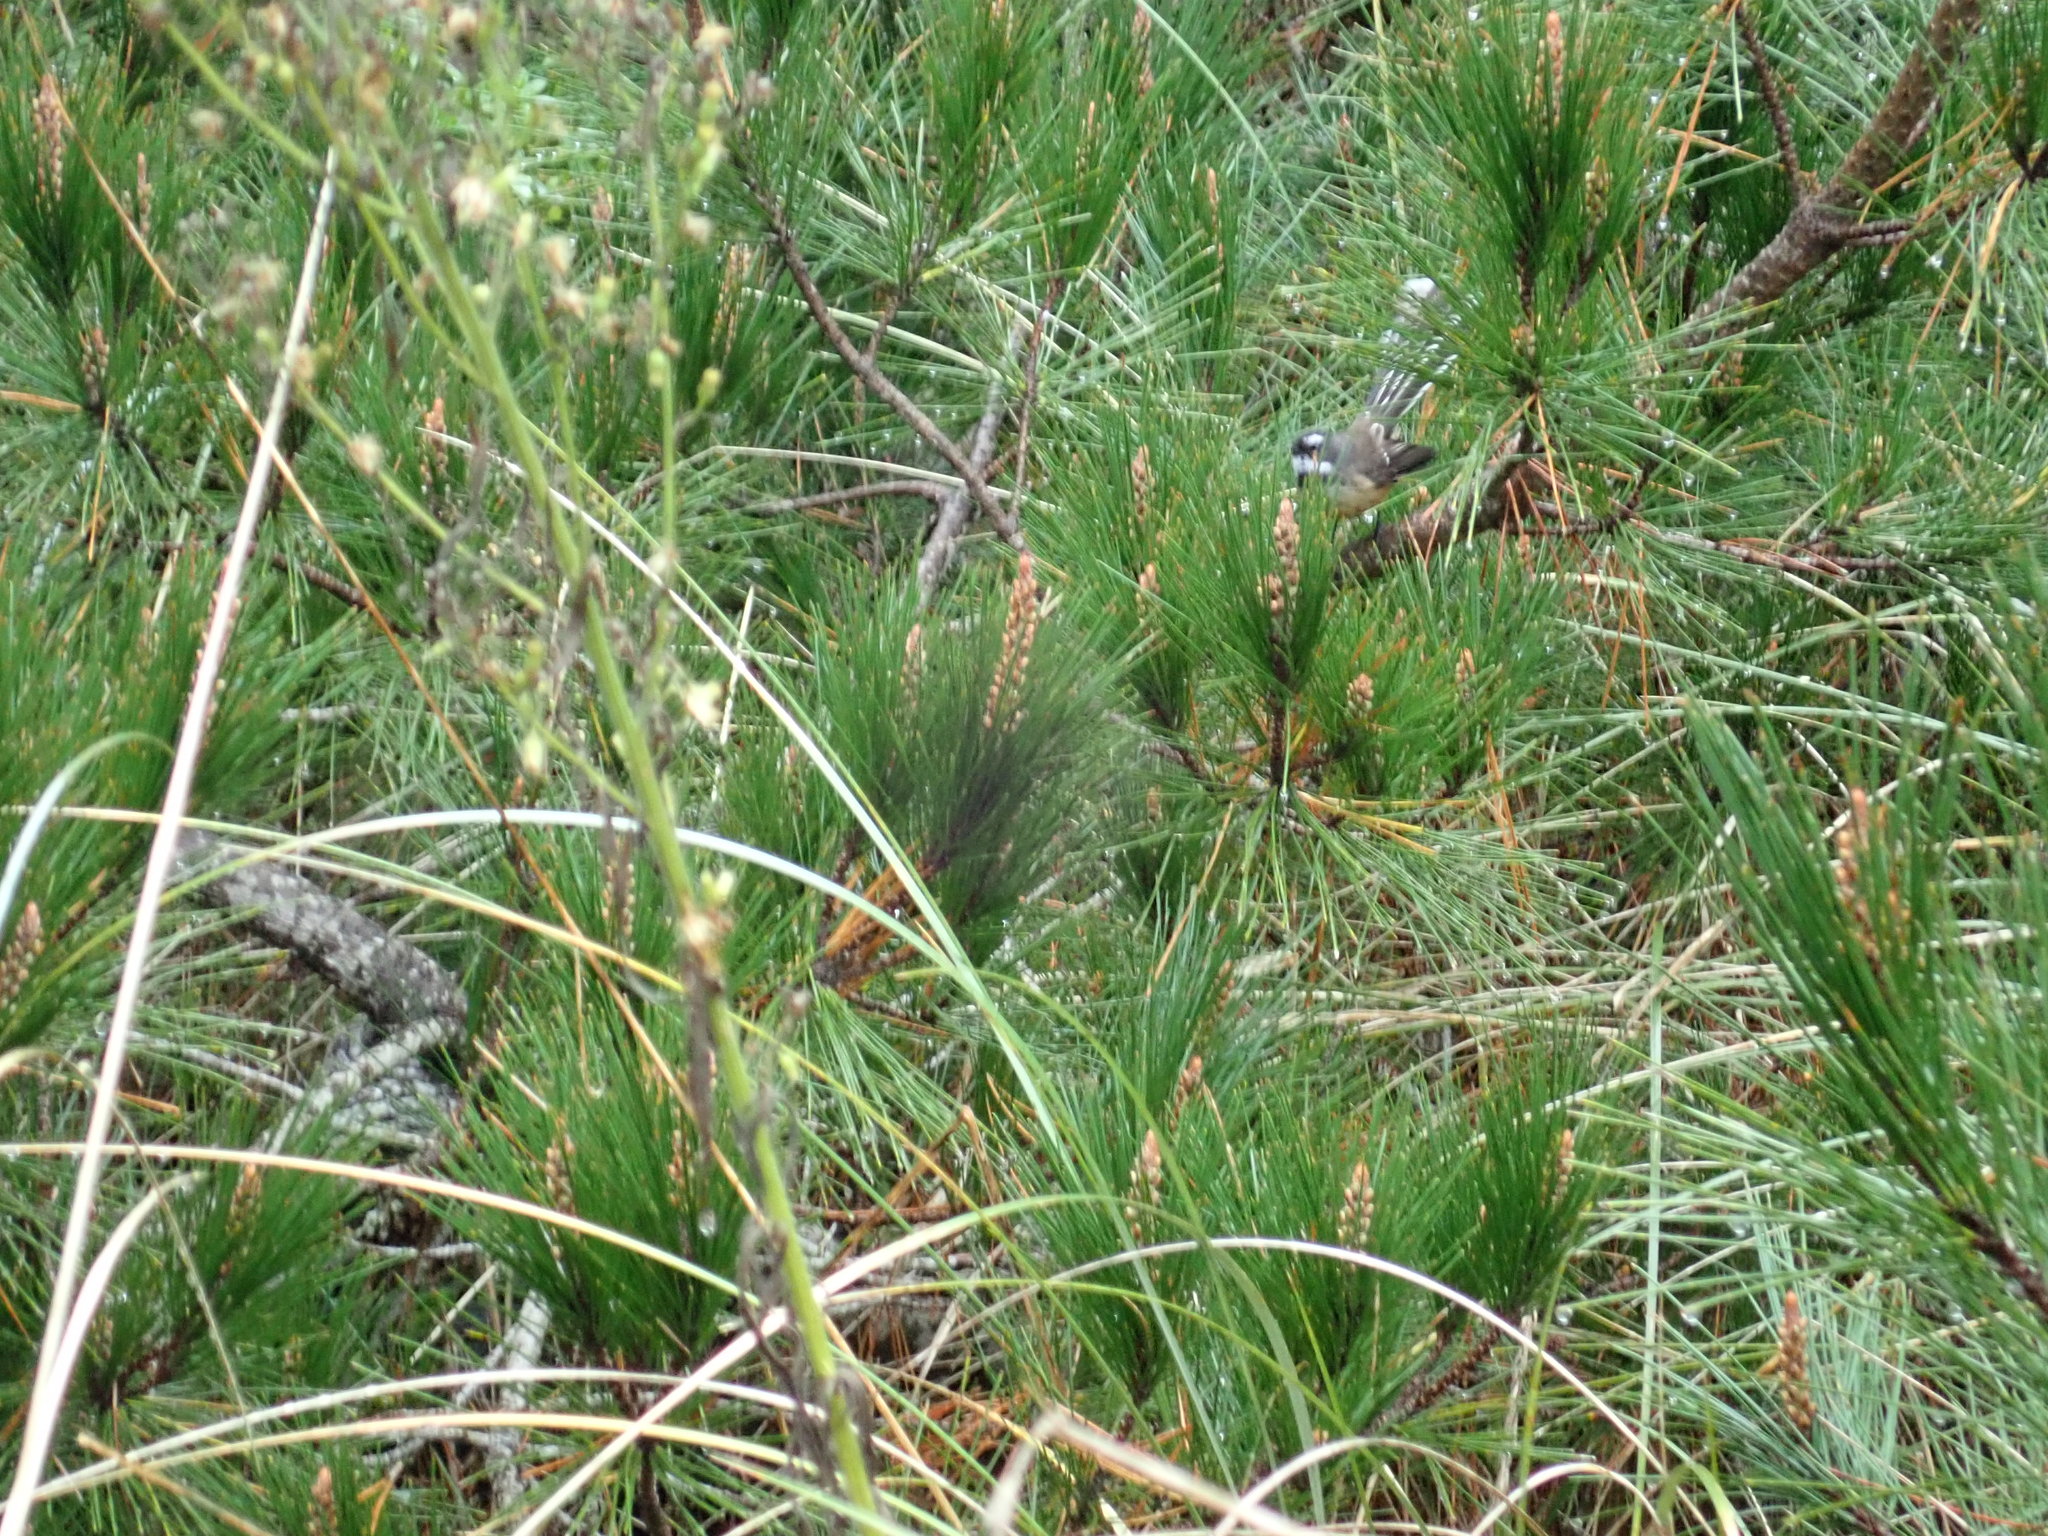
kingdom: Animalia
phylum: Chordata
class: Aves
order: Passeriformes
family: Rhipiduridae
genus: Rhipidura
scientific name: Rhipidura fuliginosa
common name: New zealand fantail
